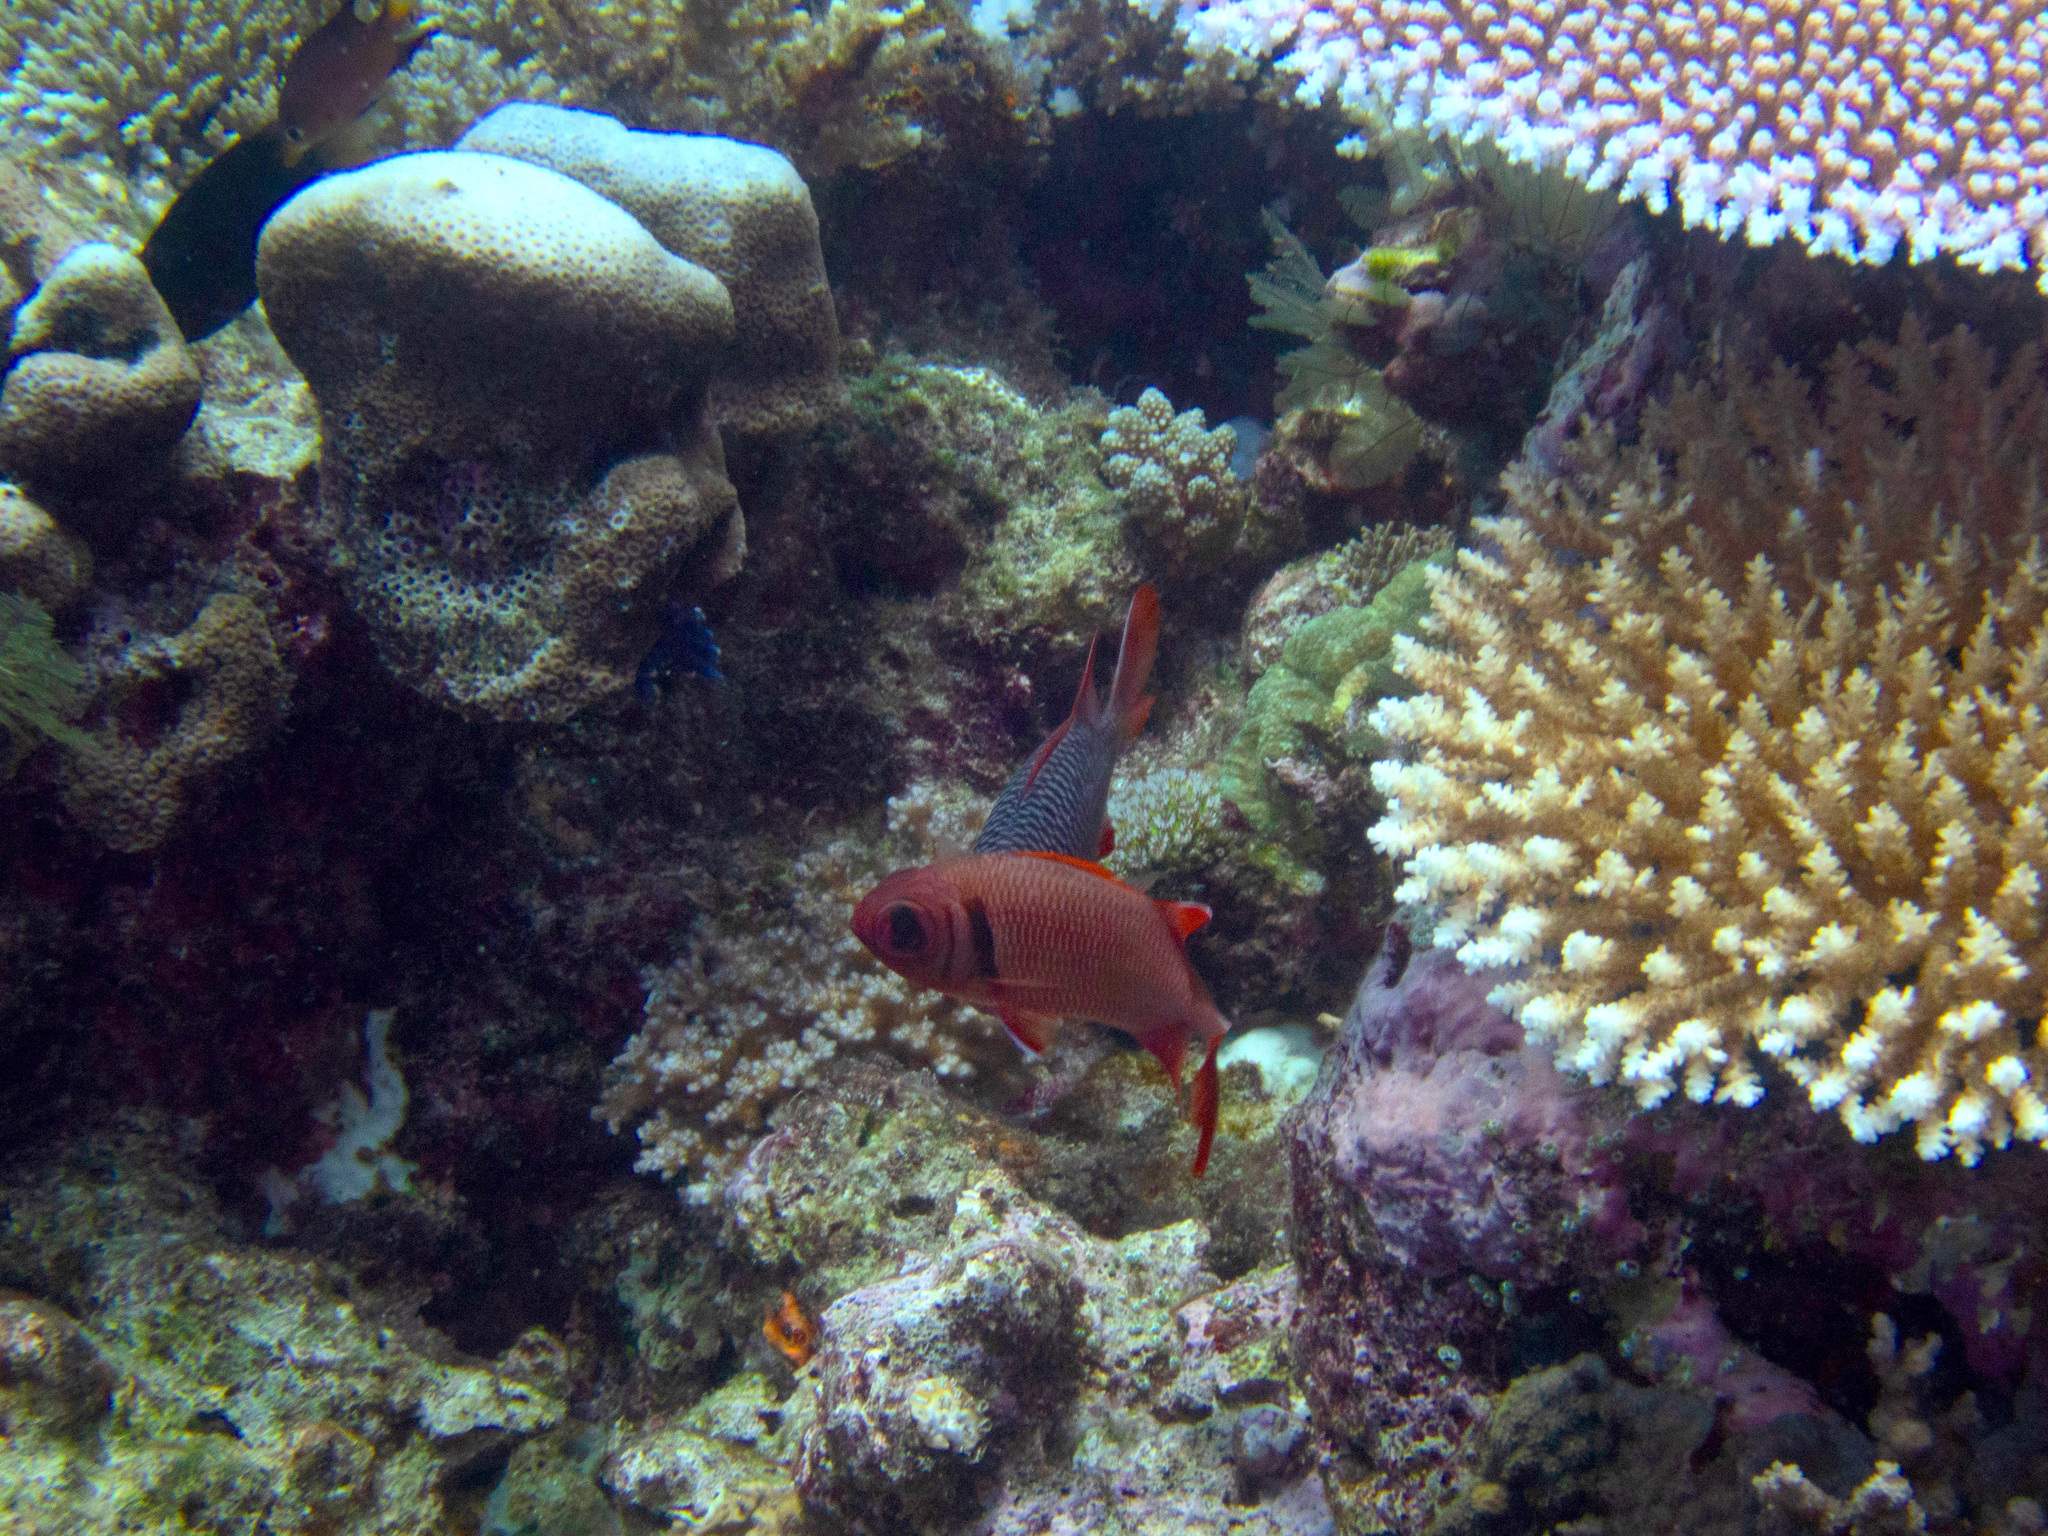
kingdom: Animalia
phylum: Chordata
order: Beryciformes
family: Holocentridae
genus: Myripristis
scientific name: Myripristis kuntee
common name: Epaulette soldierfish
